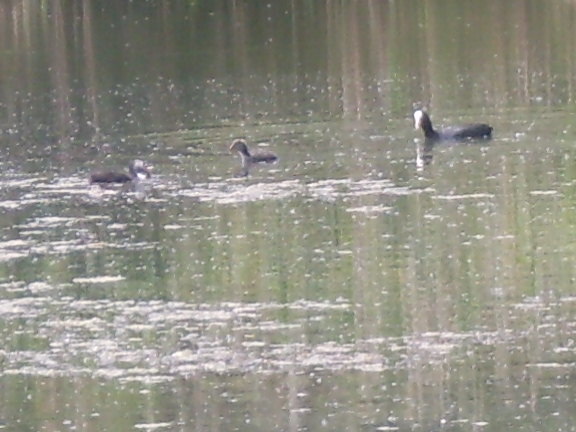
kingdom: Animalia
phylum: Chordata
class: Aves
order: Gruiformes
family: Rallidae
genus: Fulica
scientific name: Fulica atra
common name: Eurasian coot
